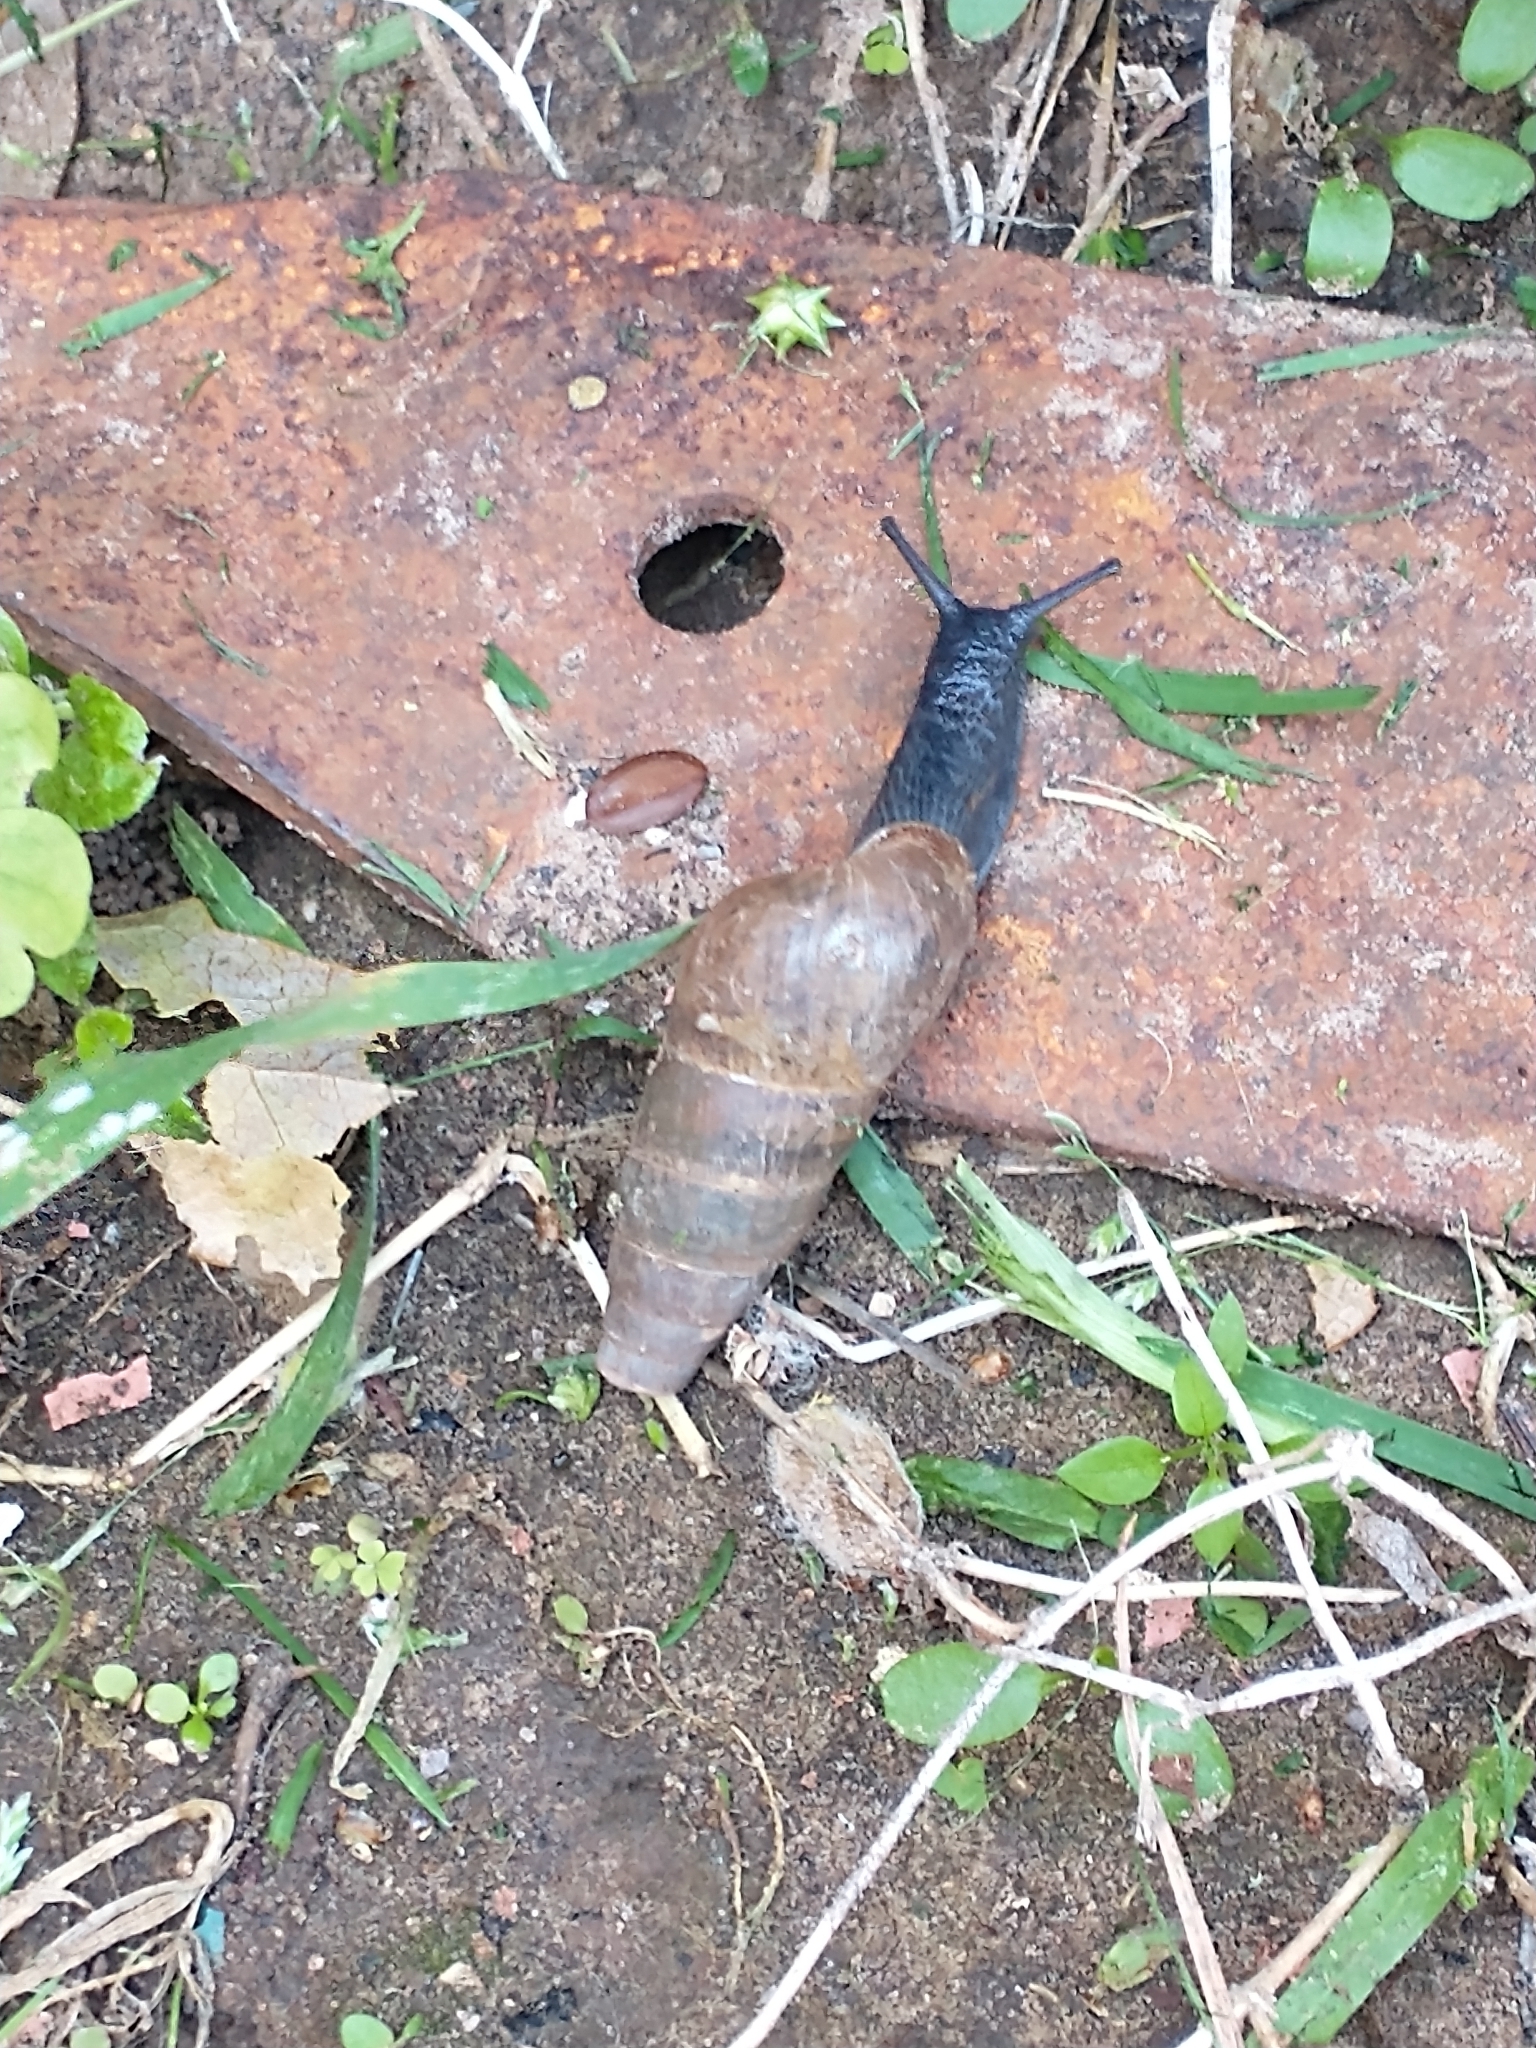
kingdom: Animalia
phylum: Mollusca
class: Gastropoda
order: Stylommatophora
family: Achatinidae
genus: Rumina
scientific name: Rumina decollata
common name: Decollate snail
